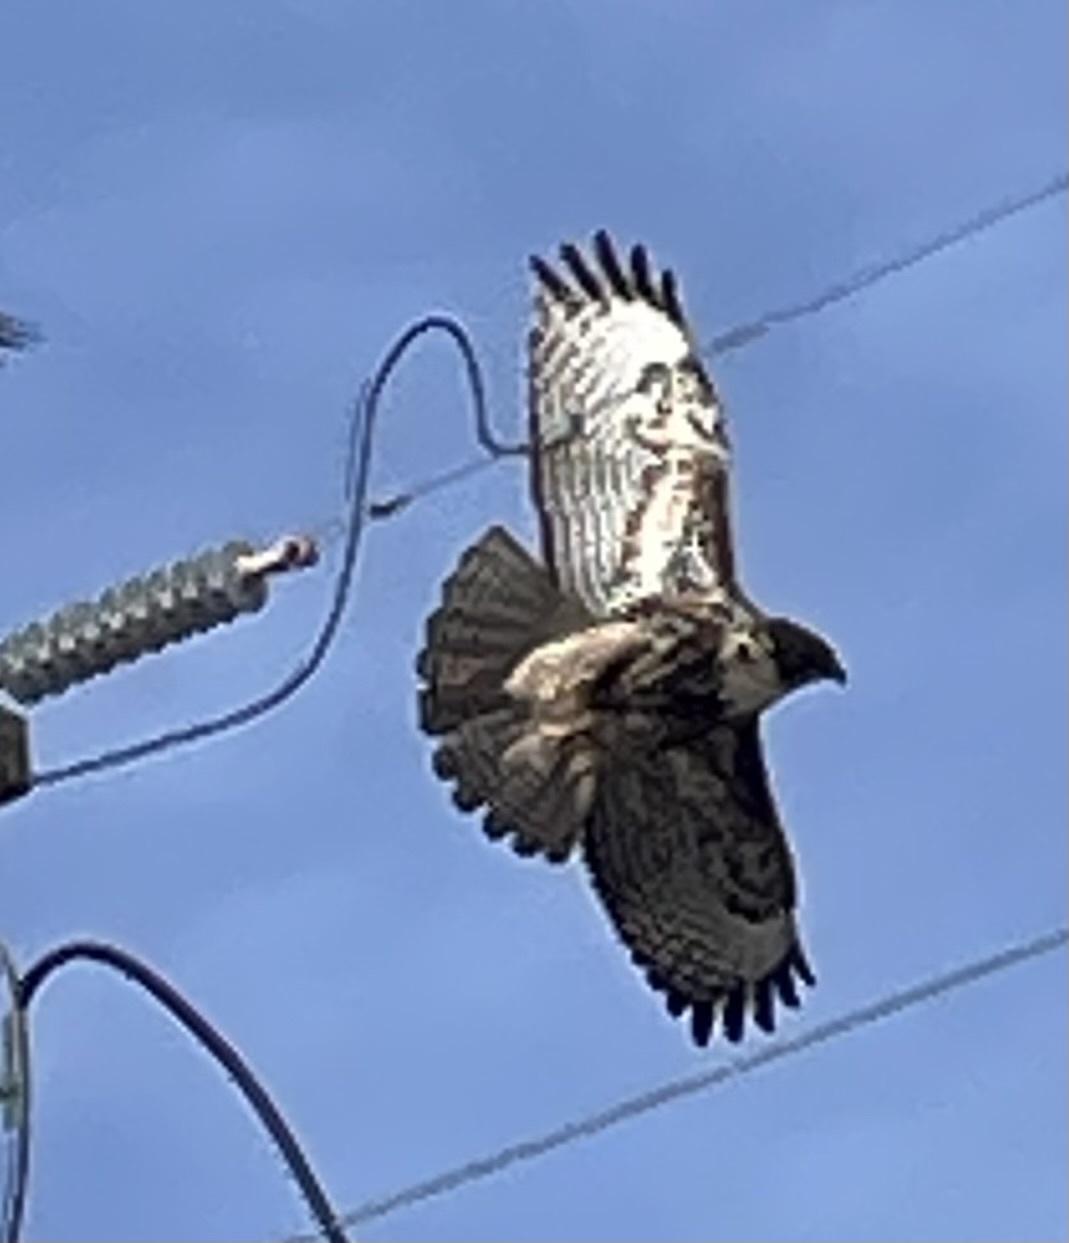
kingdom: Animalia
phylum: Chordata
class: Aves
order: Accipitriformes
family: Accipitridae
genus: Buteo
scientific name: Buteo jamaicensis
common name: Red-tailed hawk
